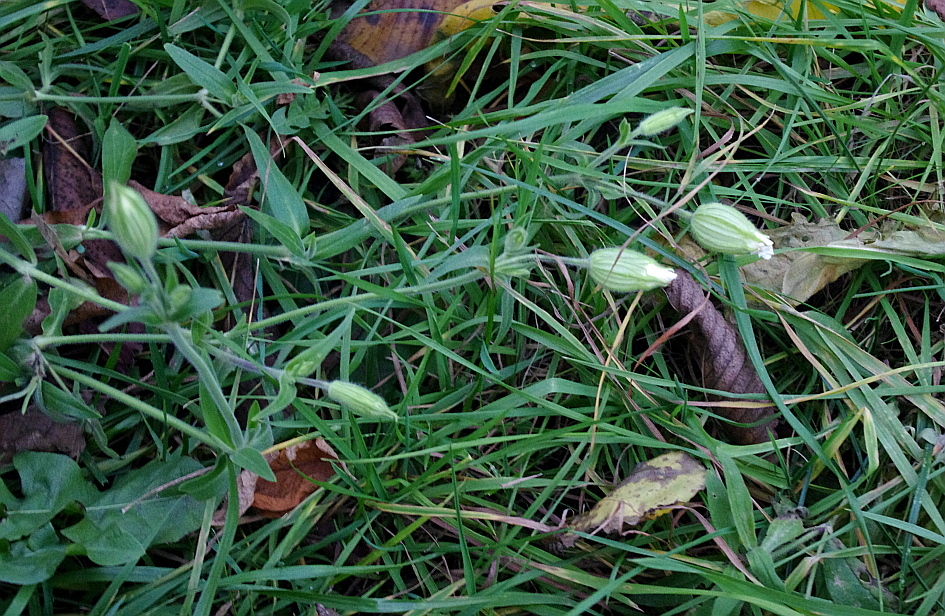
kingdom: Plantae
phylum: Tracheophyta
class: Magnoliopsida
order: Caryophyllales
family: Caryophyllaceae
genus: Silene
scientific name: Silene latifolia
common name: White campion
